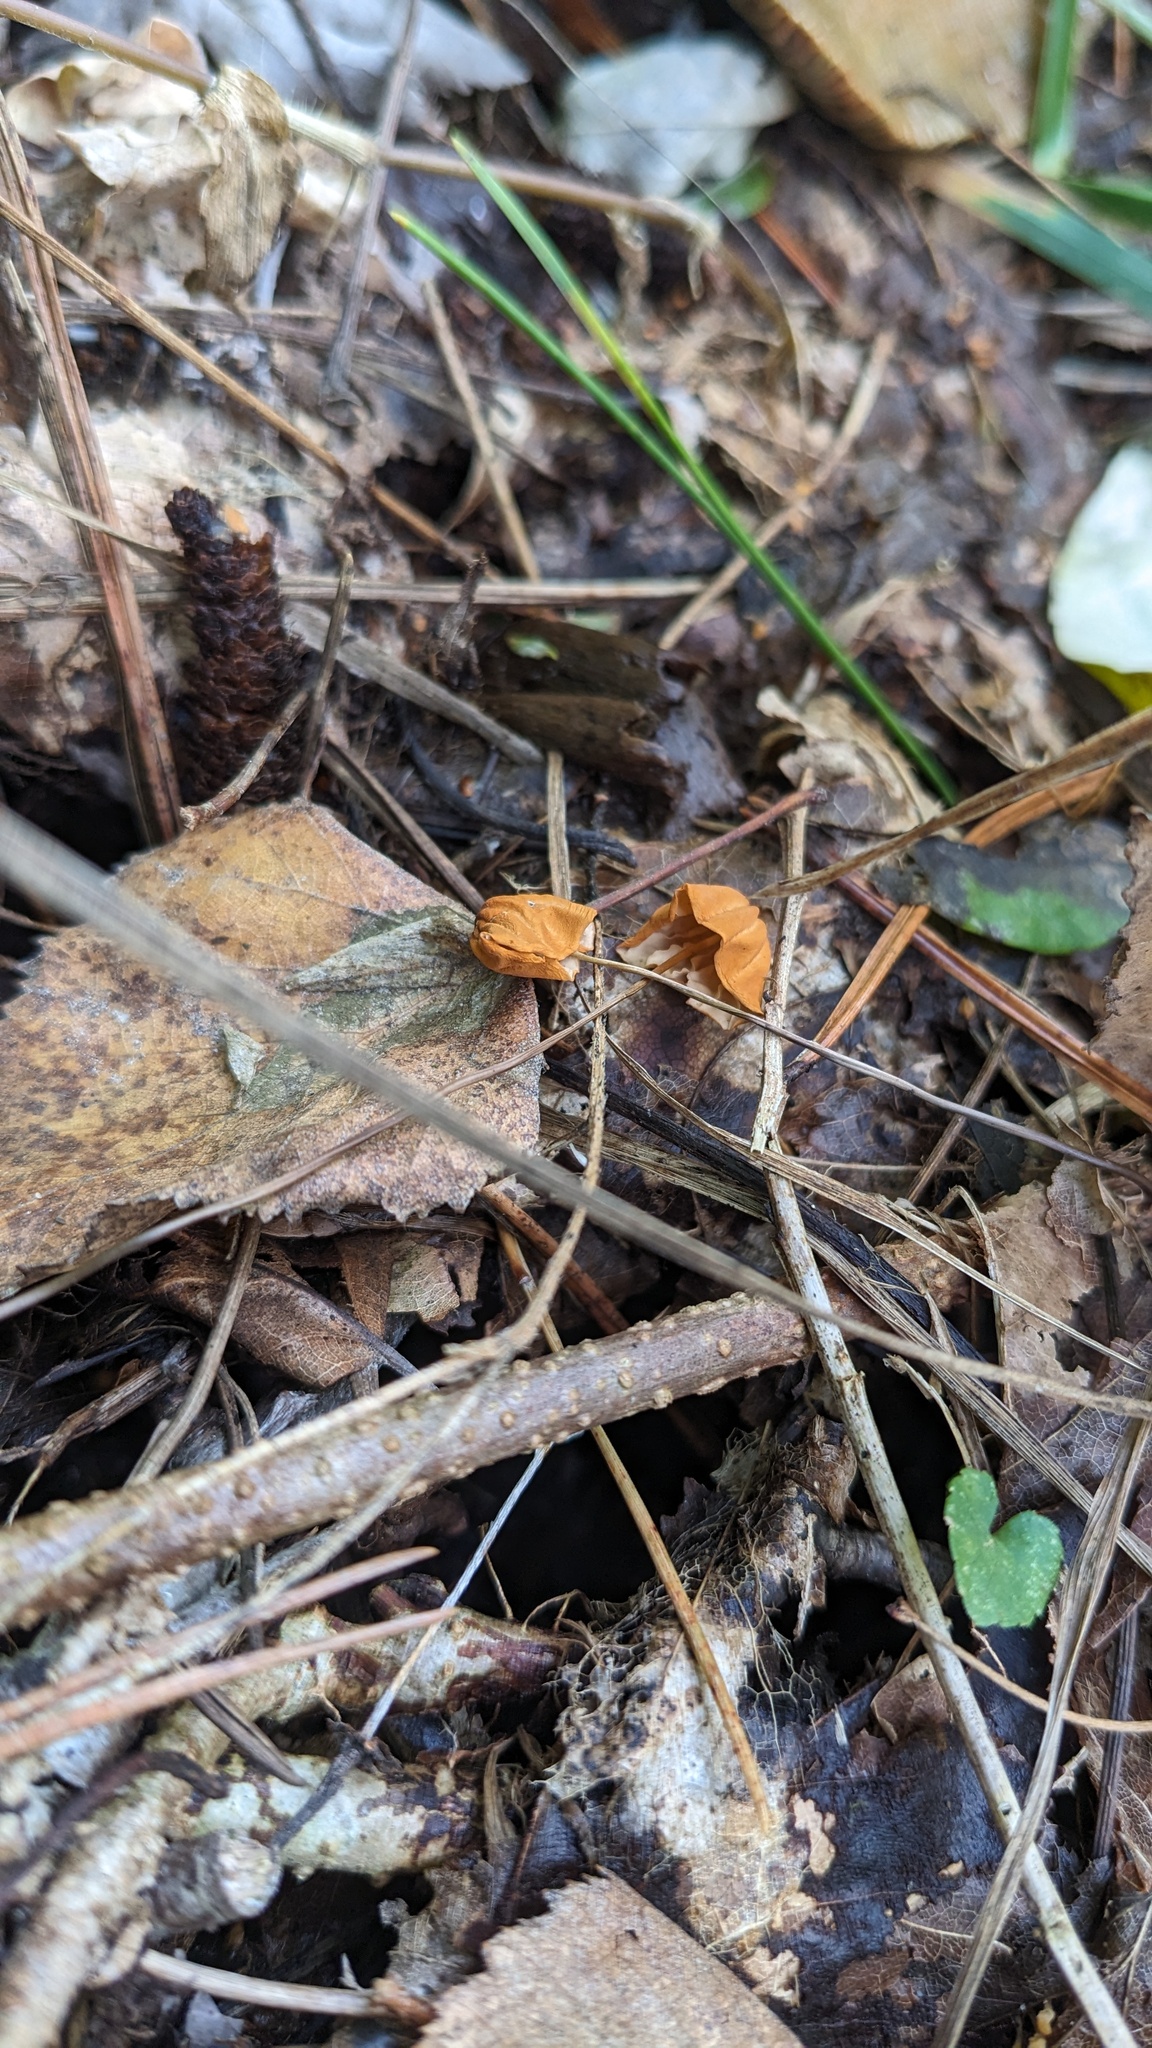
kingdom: Fungi
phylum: Basidiomycota
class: Agaricomycetes
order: Agaricales
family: Marasmiaceae
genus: Marasmius
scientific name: Marasmius siccus
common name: Orange pinwheel
